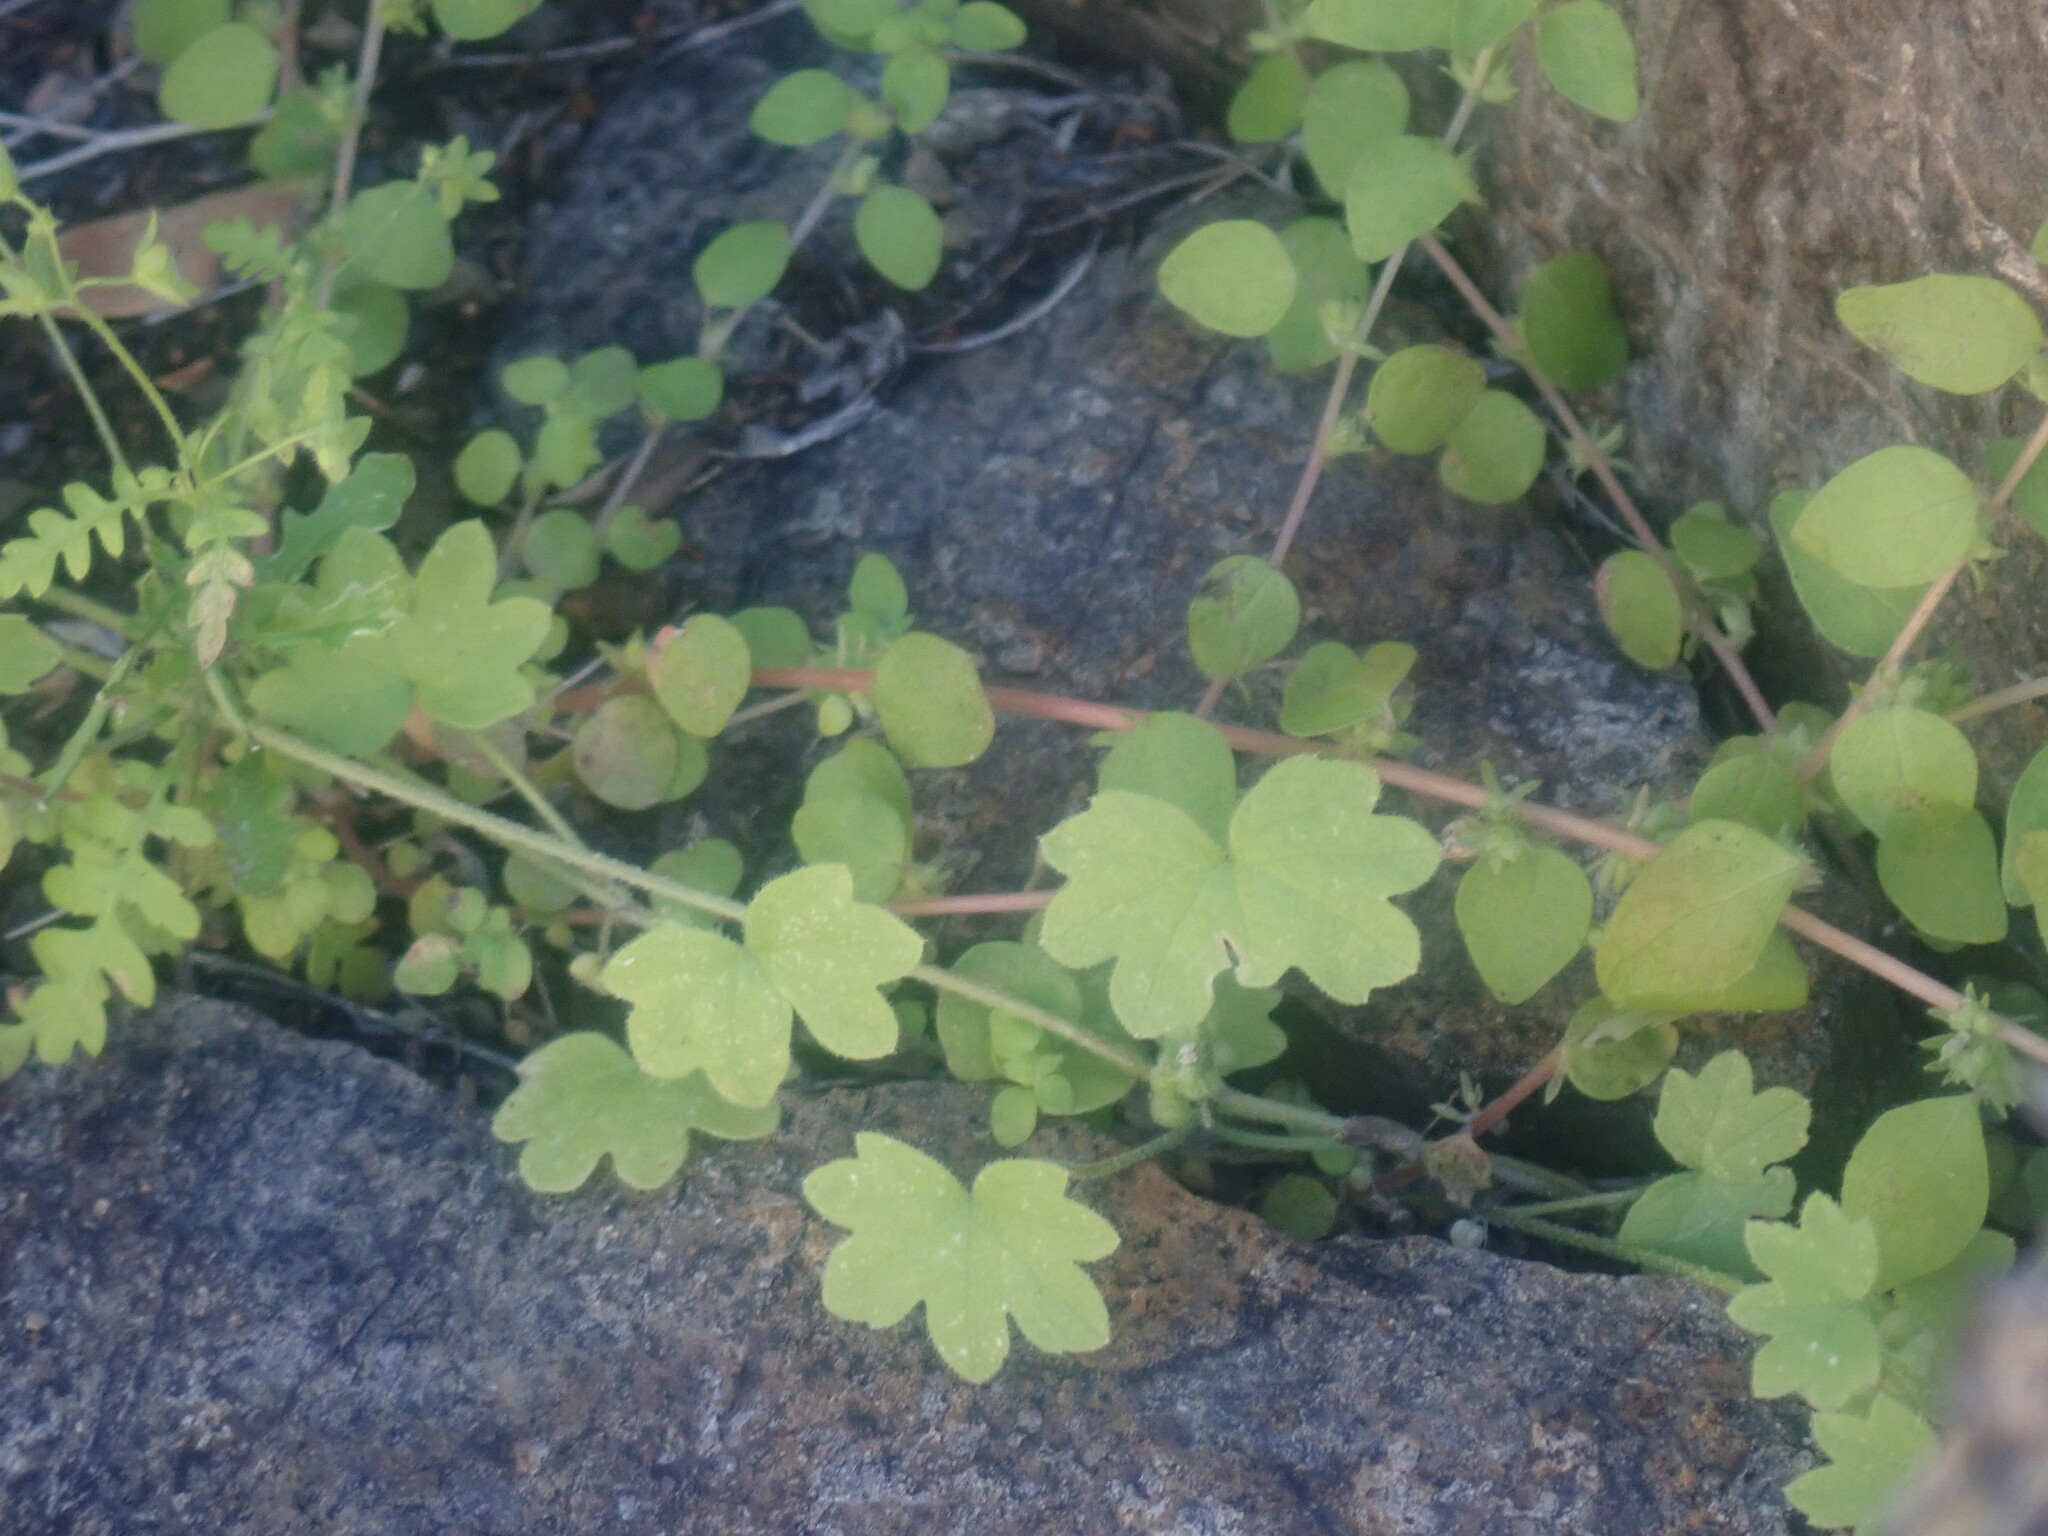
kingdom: Plantae
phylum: Tracheophyta
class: Magnoliopsida
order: Apiales
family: Apiaceae
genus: Bowlesia
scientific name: Bowlesia incana
